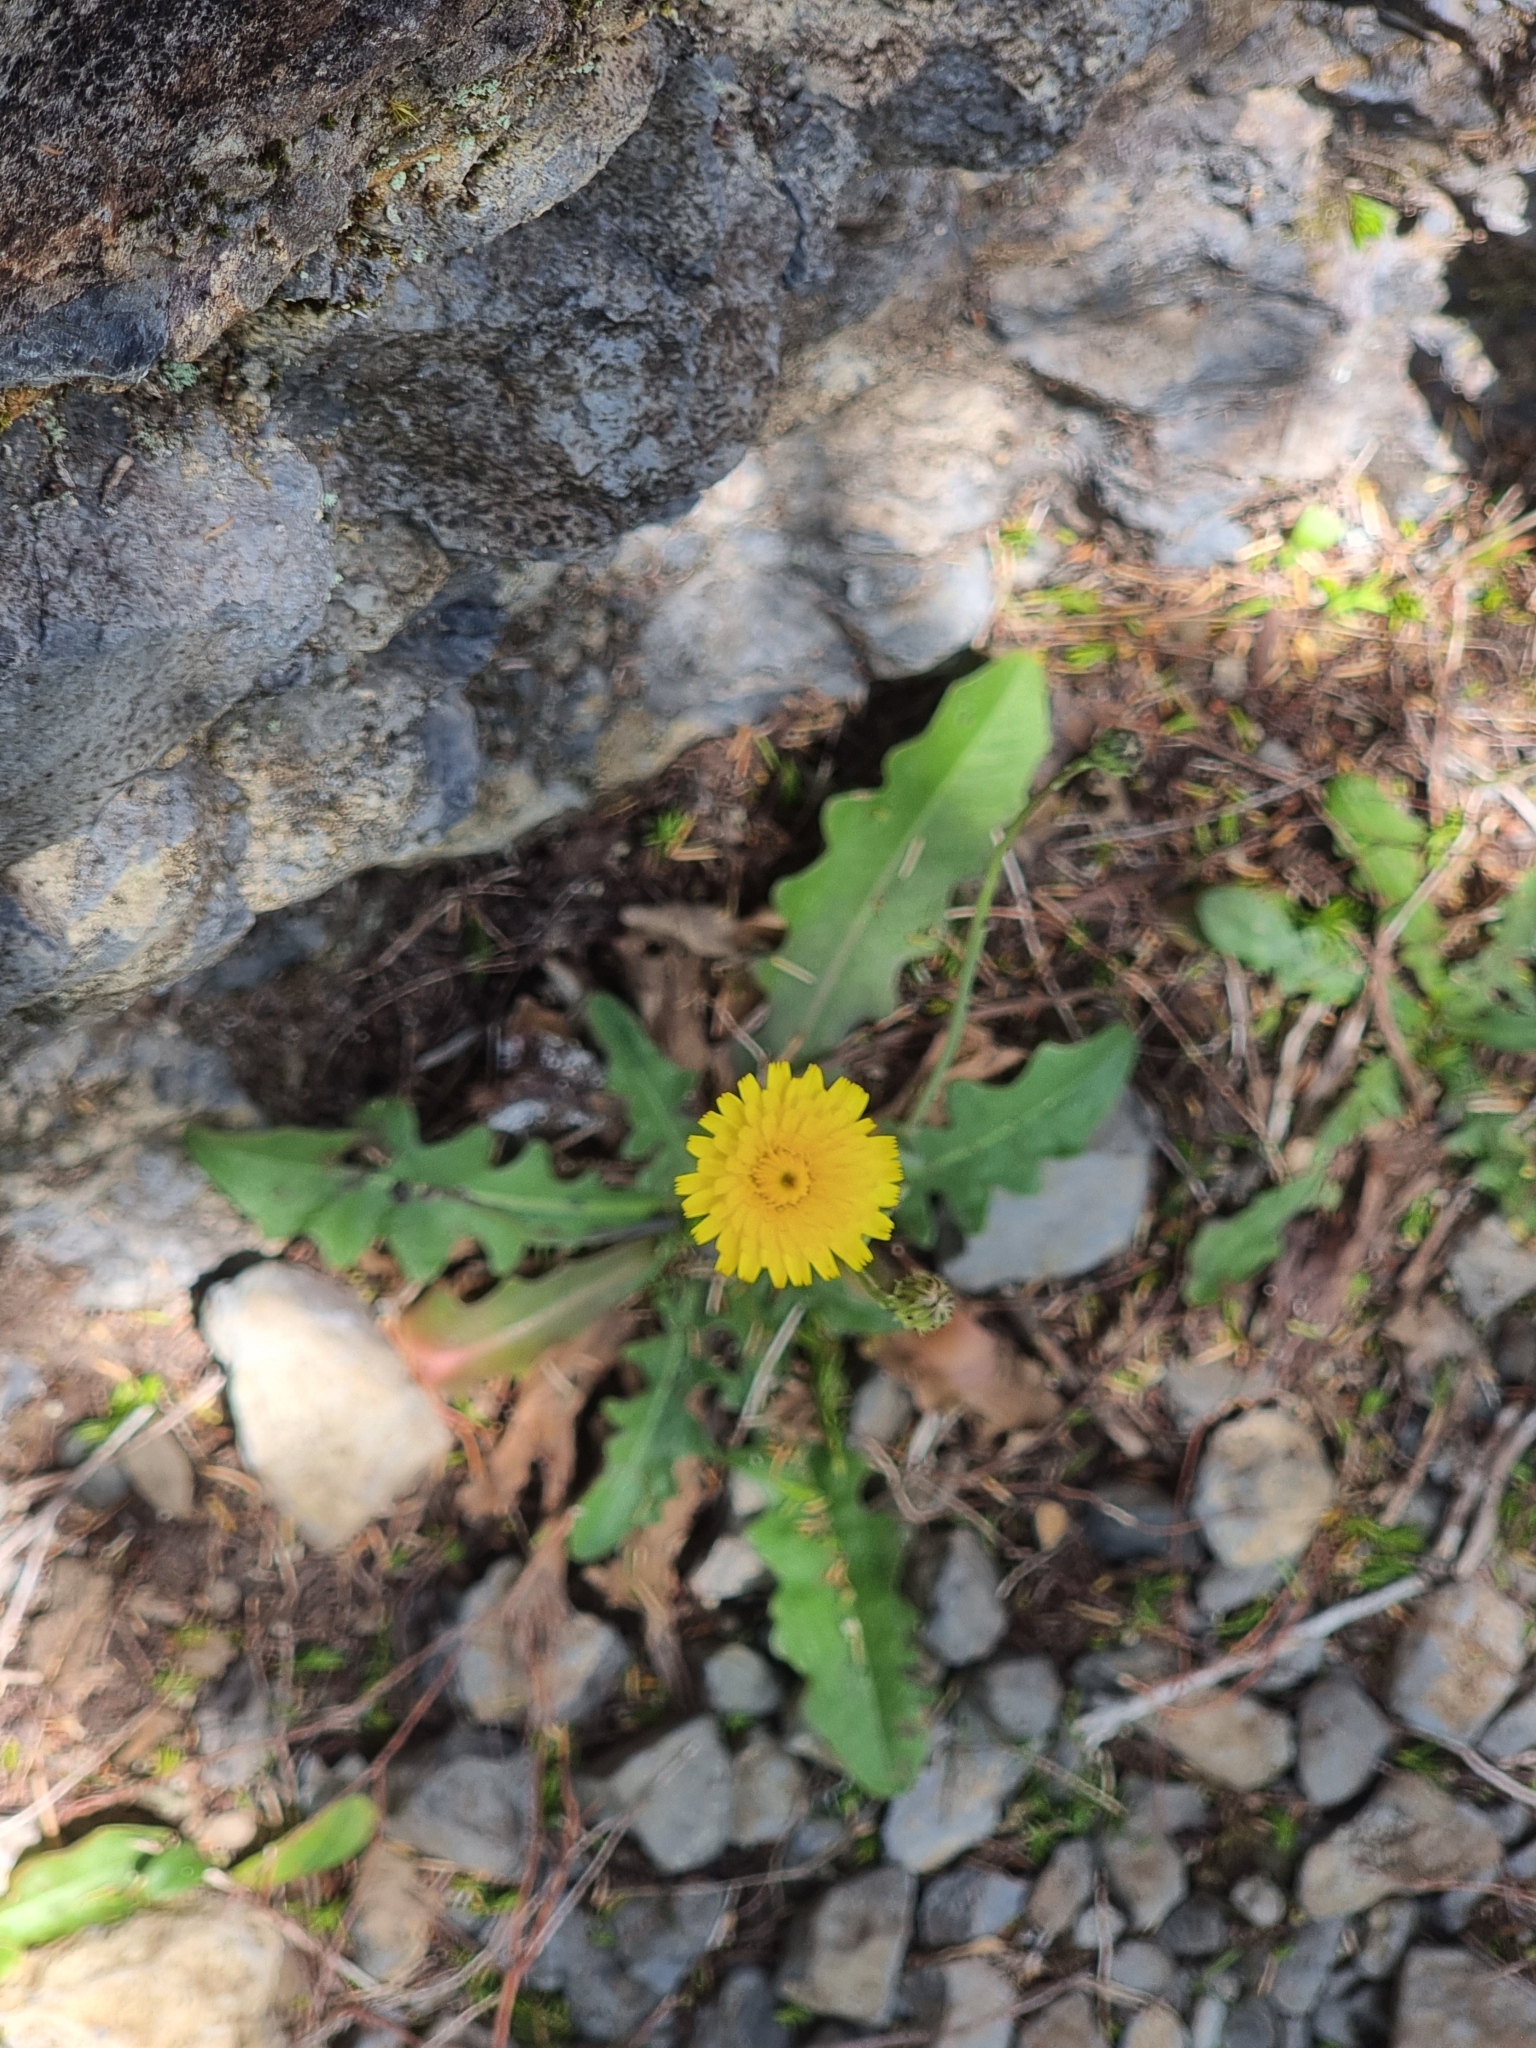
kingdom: Plantae
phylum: Tracheophyta
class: Magnoliopsida
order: Asterales
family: Asteraceae
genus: Hypochaeris
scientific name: Hypochaeris radicata
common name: Flatweed
